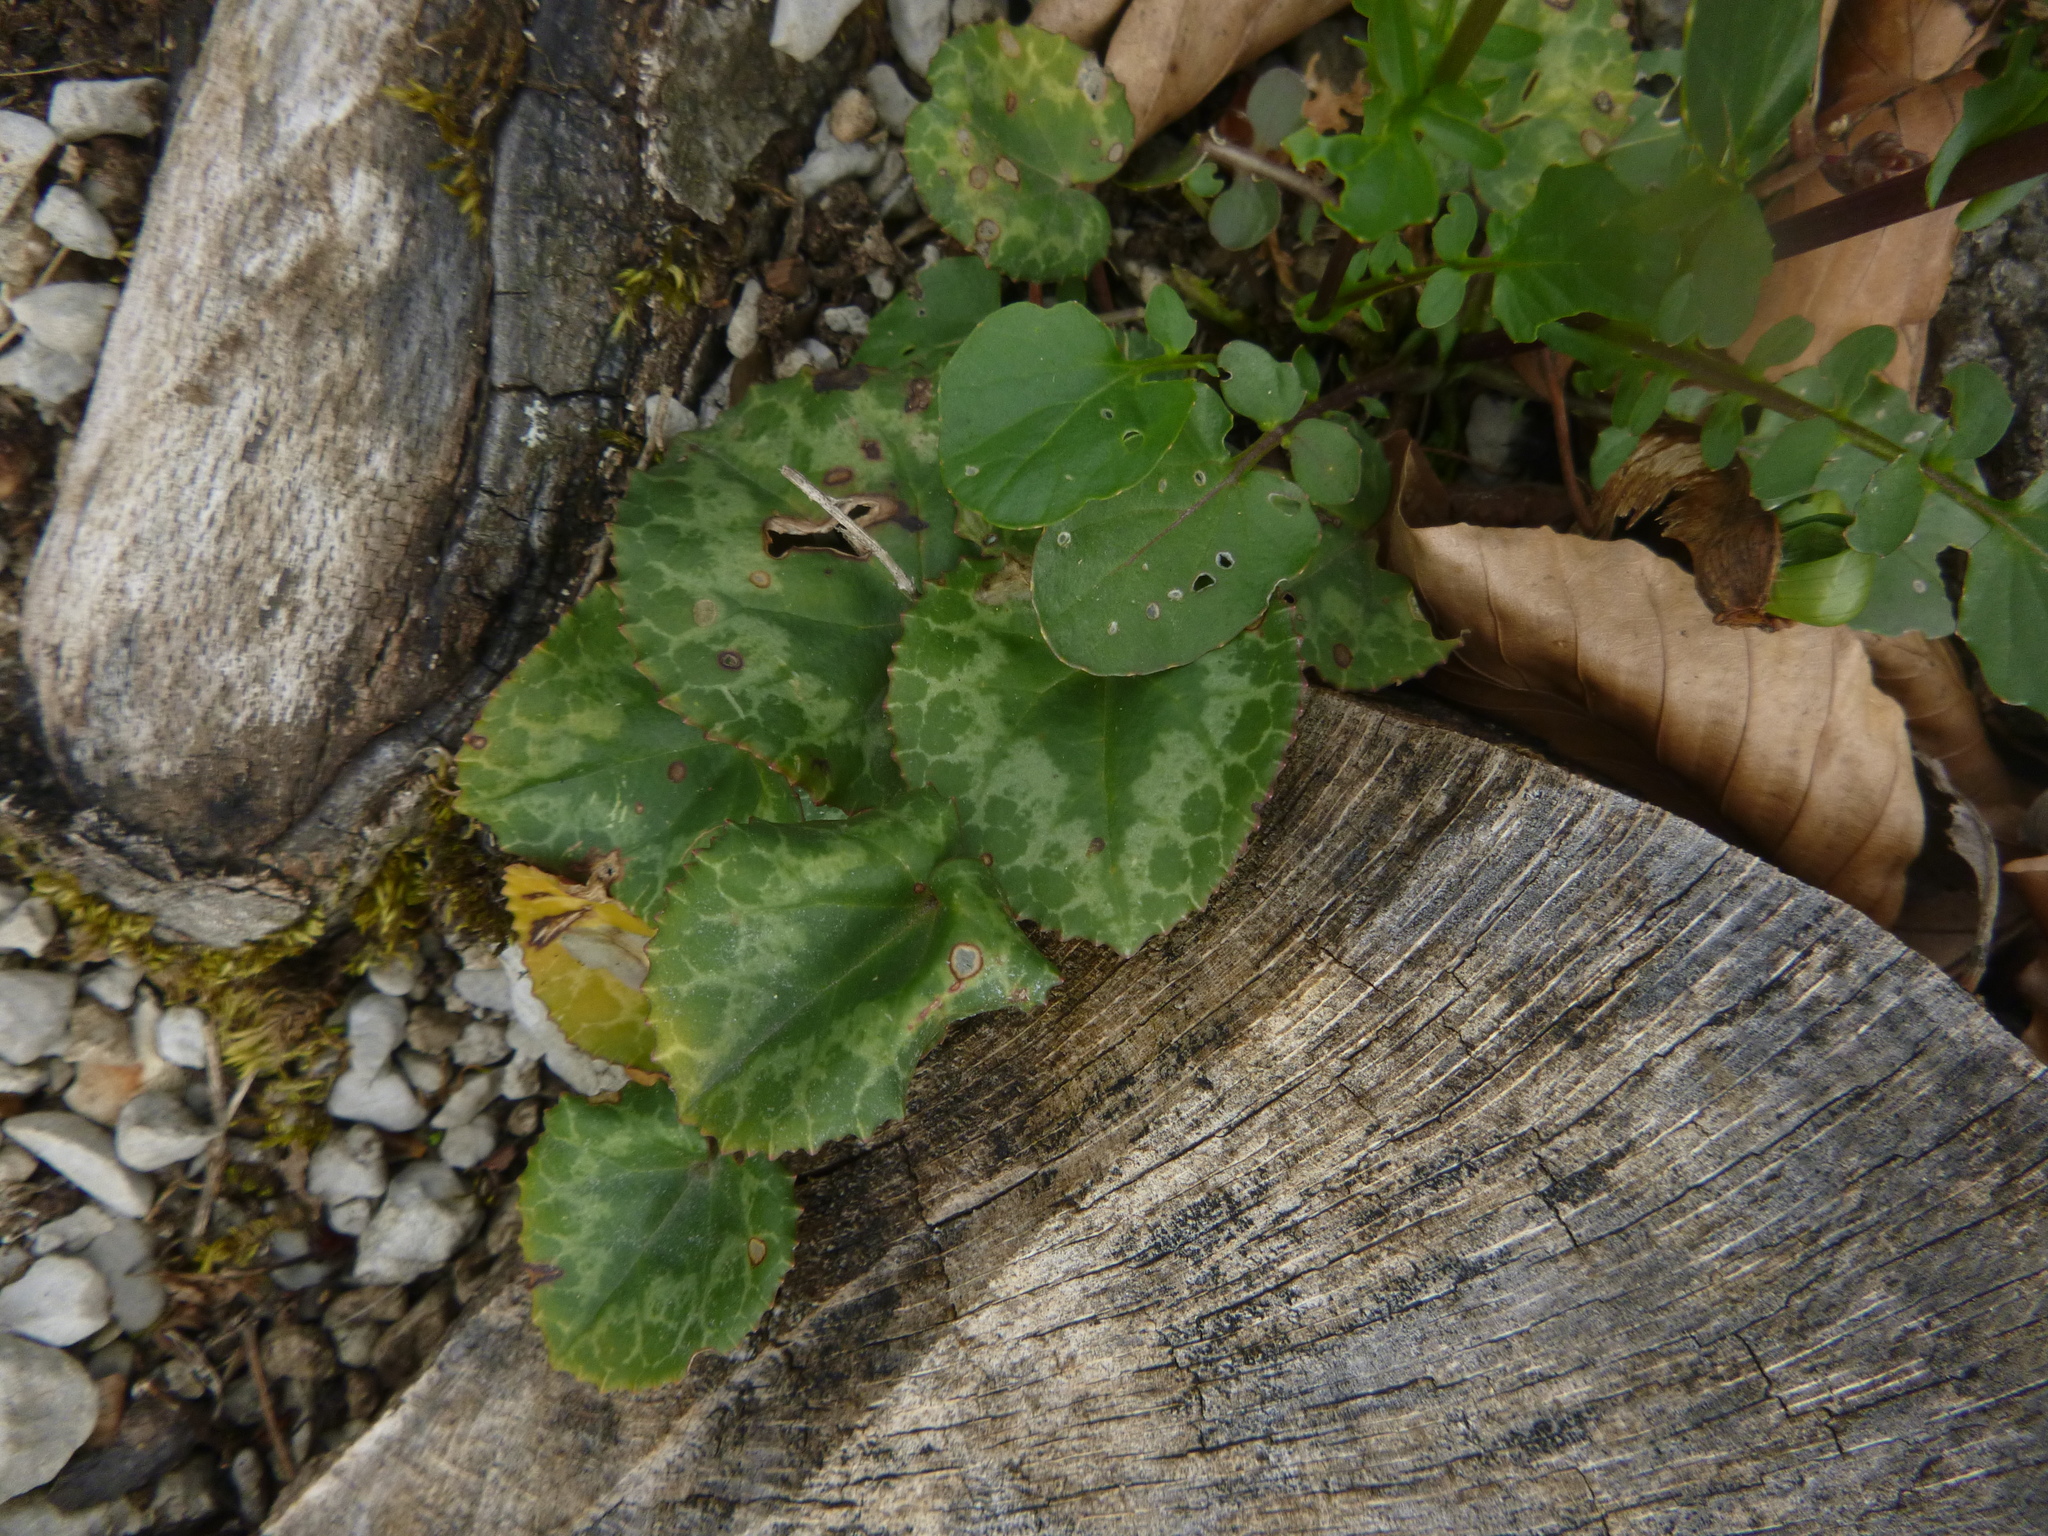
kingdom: Plantae
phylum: Tracheophyta
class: Magnoliopsida
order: Ericales
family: Primulaceae
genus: Cyclamen
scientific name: Cyclamen purpurascens
